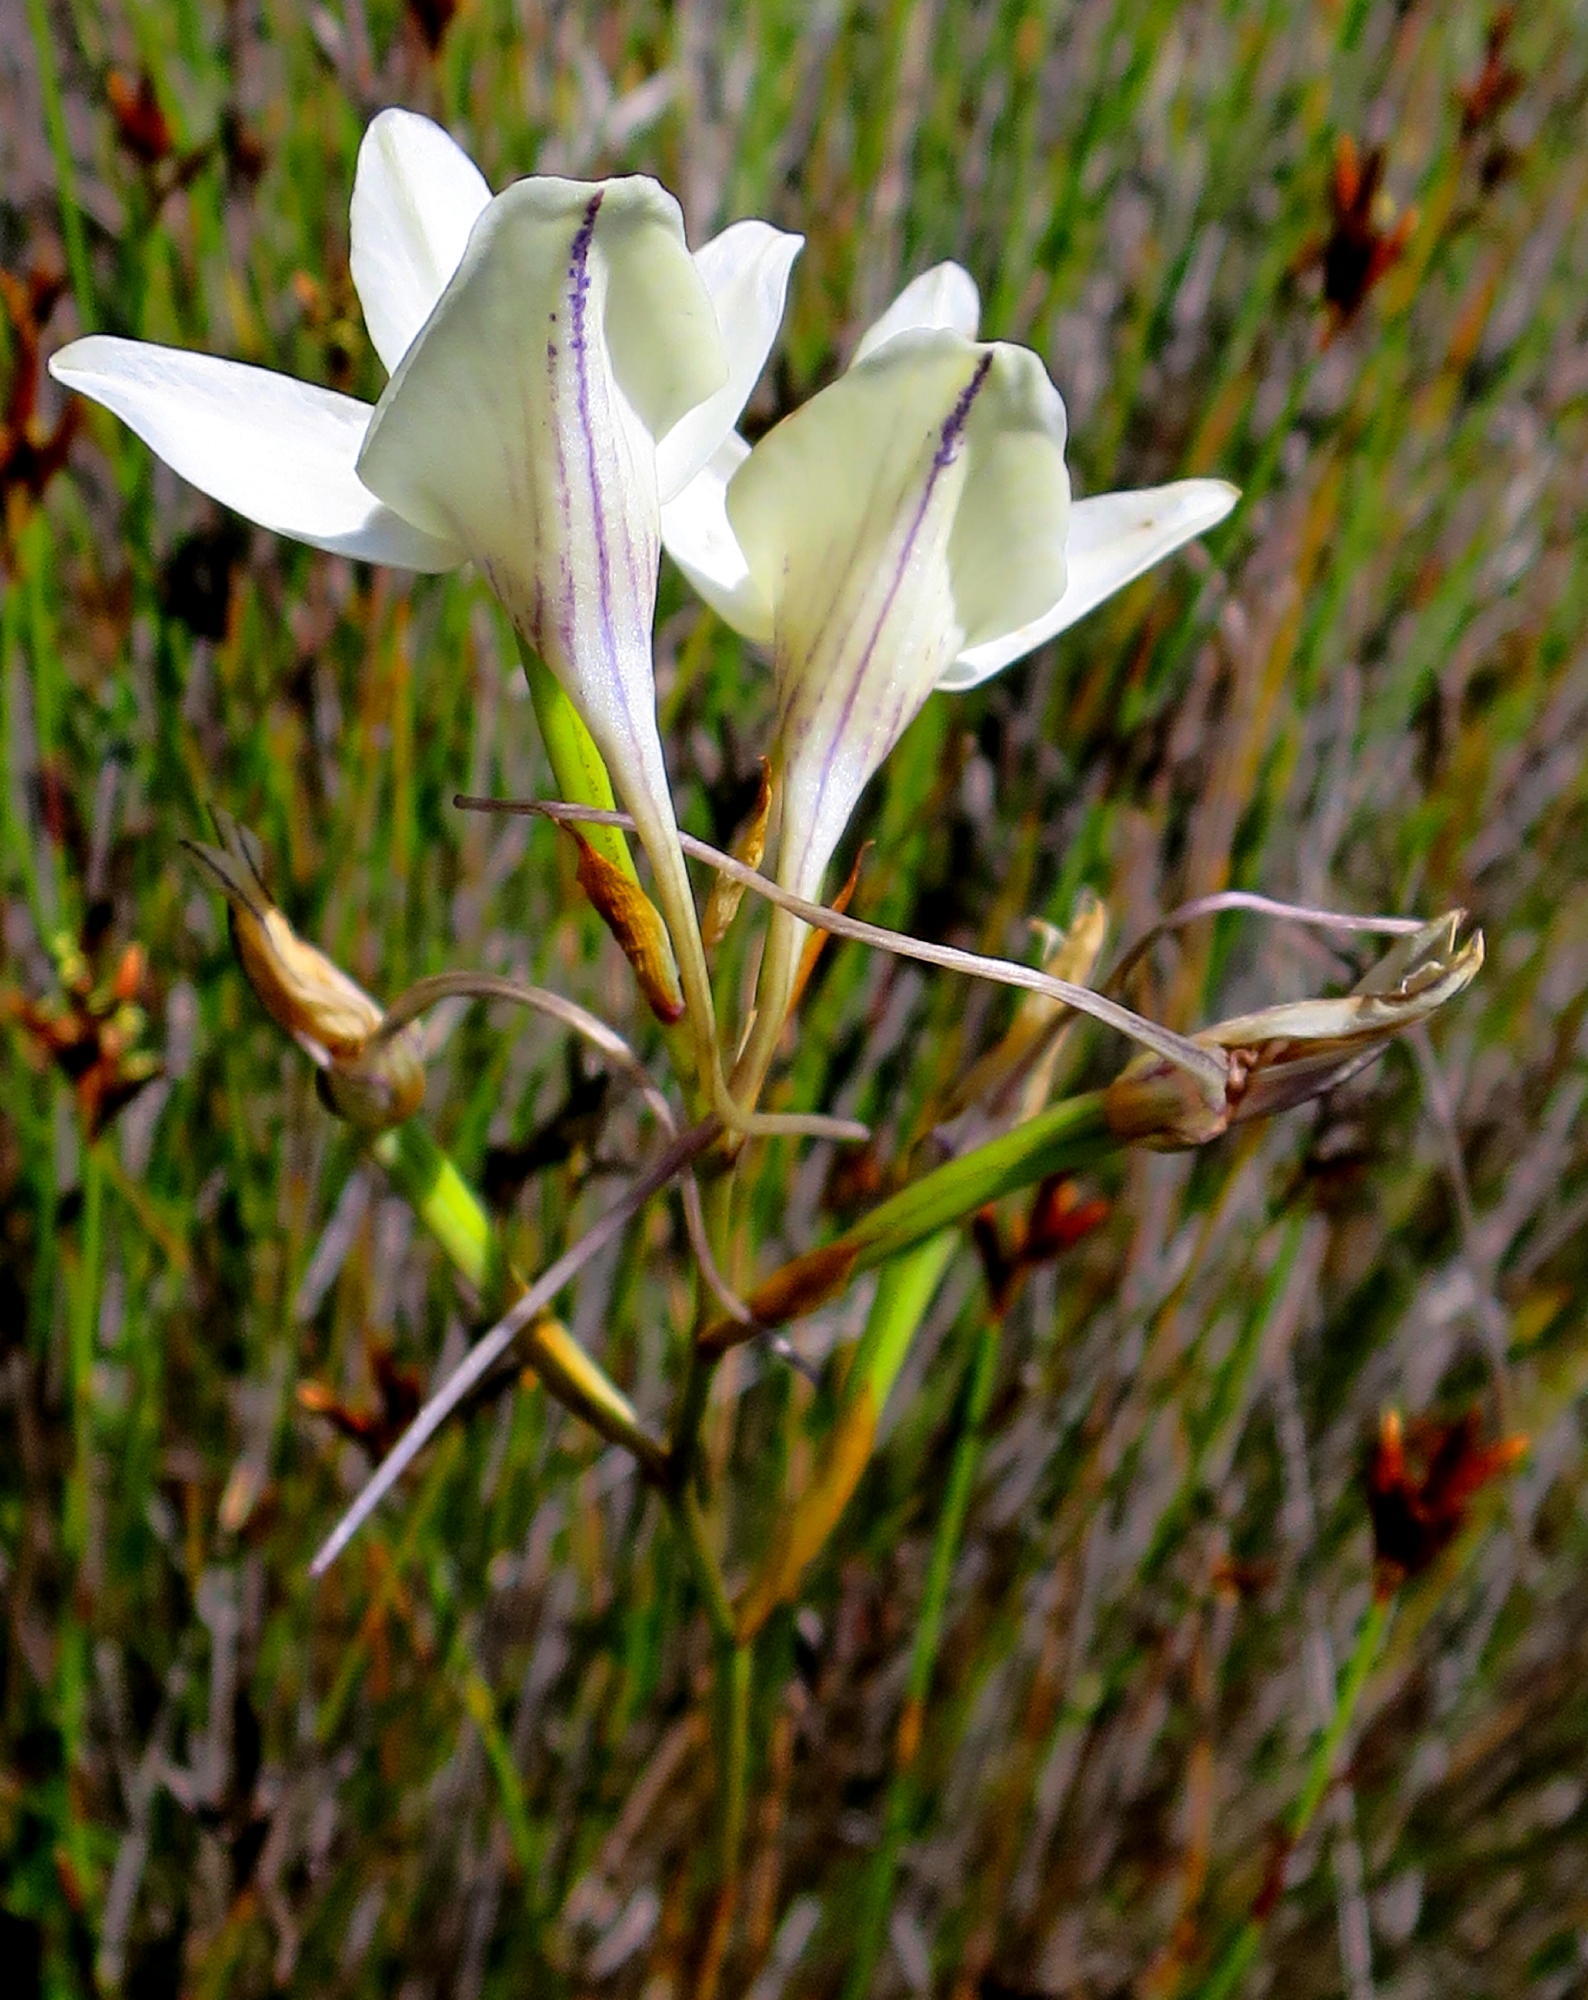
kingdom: Plantae
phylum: Tracheophyta
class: Liliopsida
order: Asparagales
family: Orchidaceae
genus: Disa
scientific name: Disa schlechteriana
